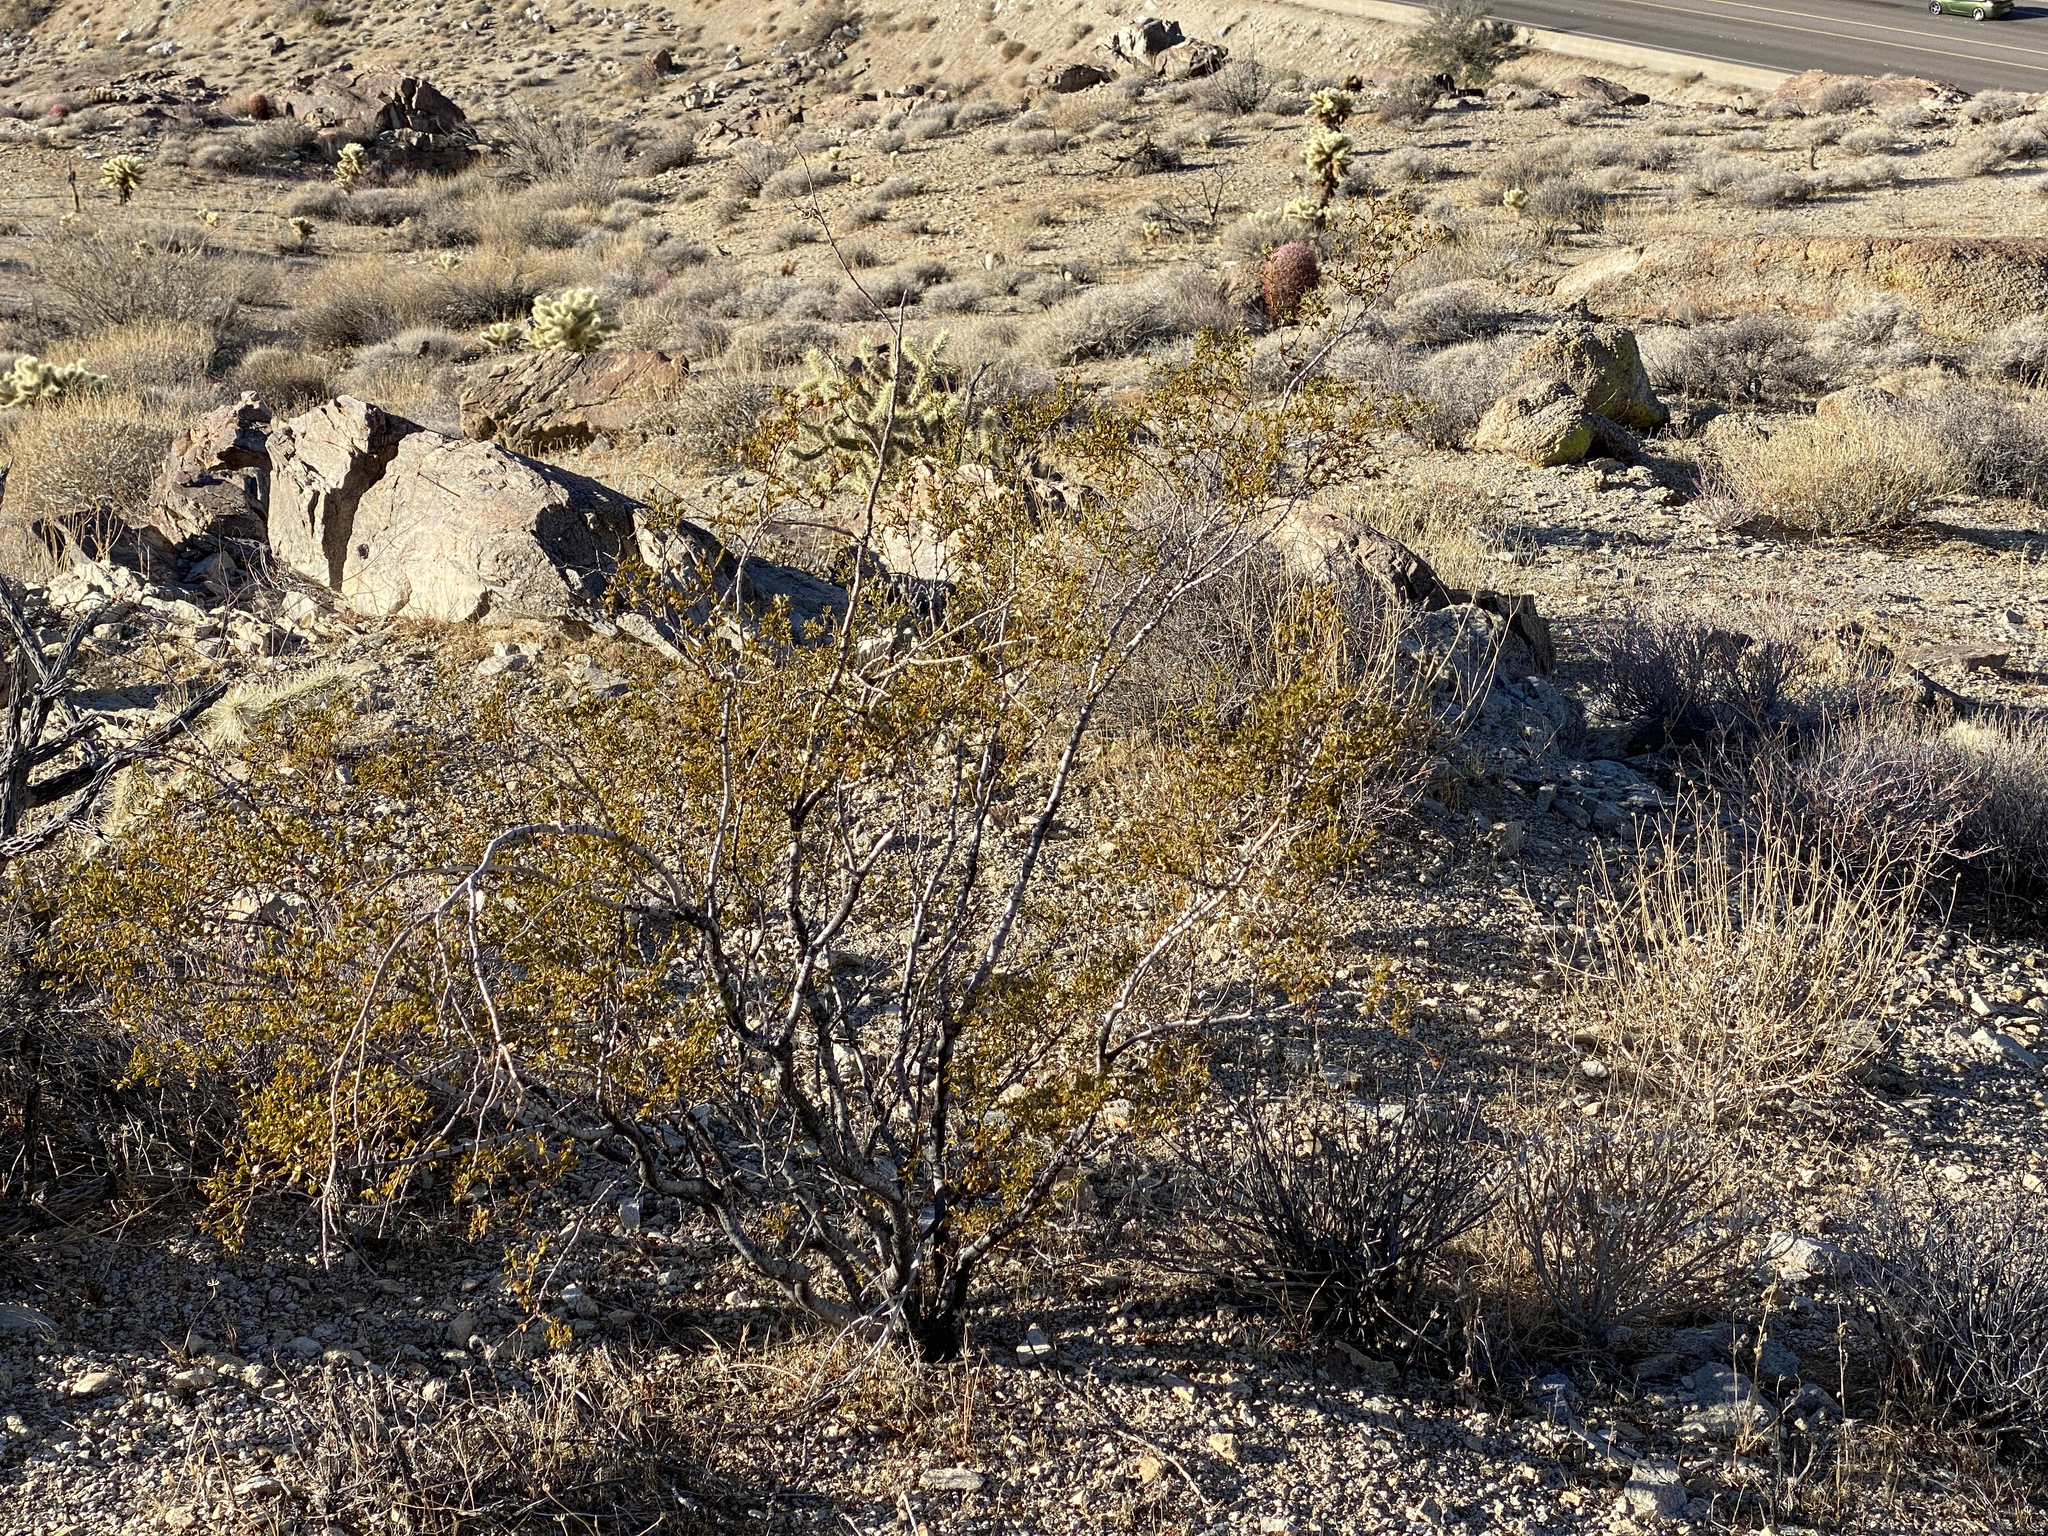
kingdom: Plantae
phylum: Tracheophyta
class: Magnoliopsida
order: Zygophyllales
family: Zygophyllaceae
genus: Larrea
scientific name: Larrea tridentata
